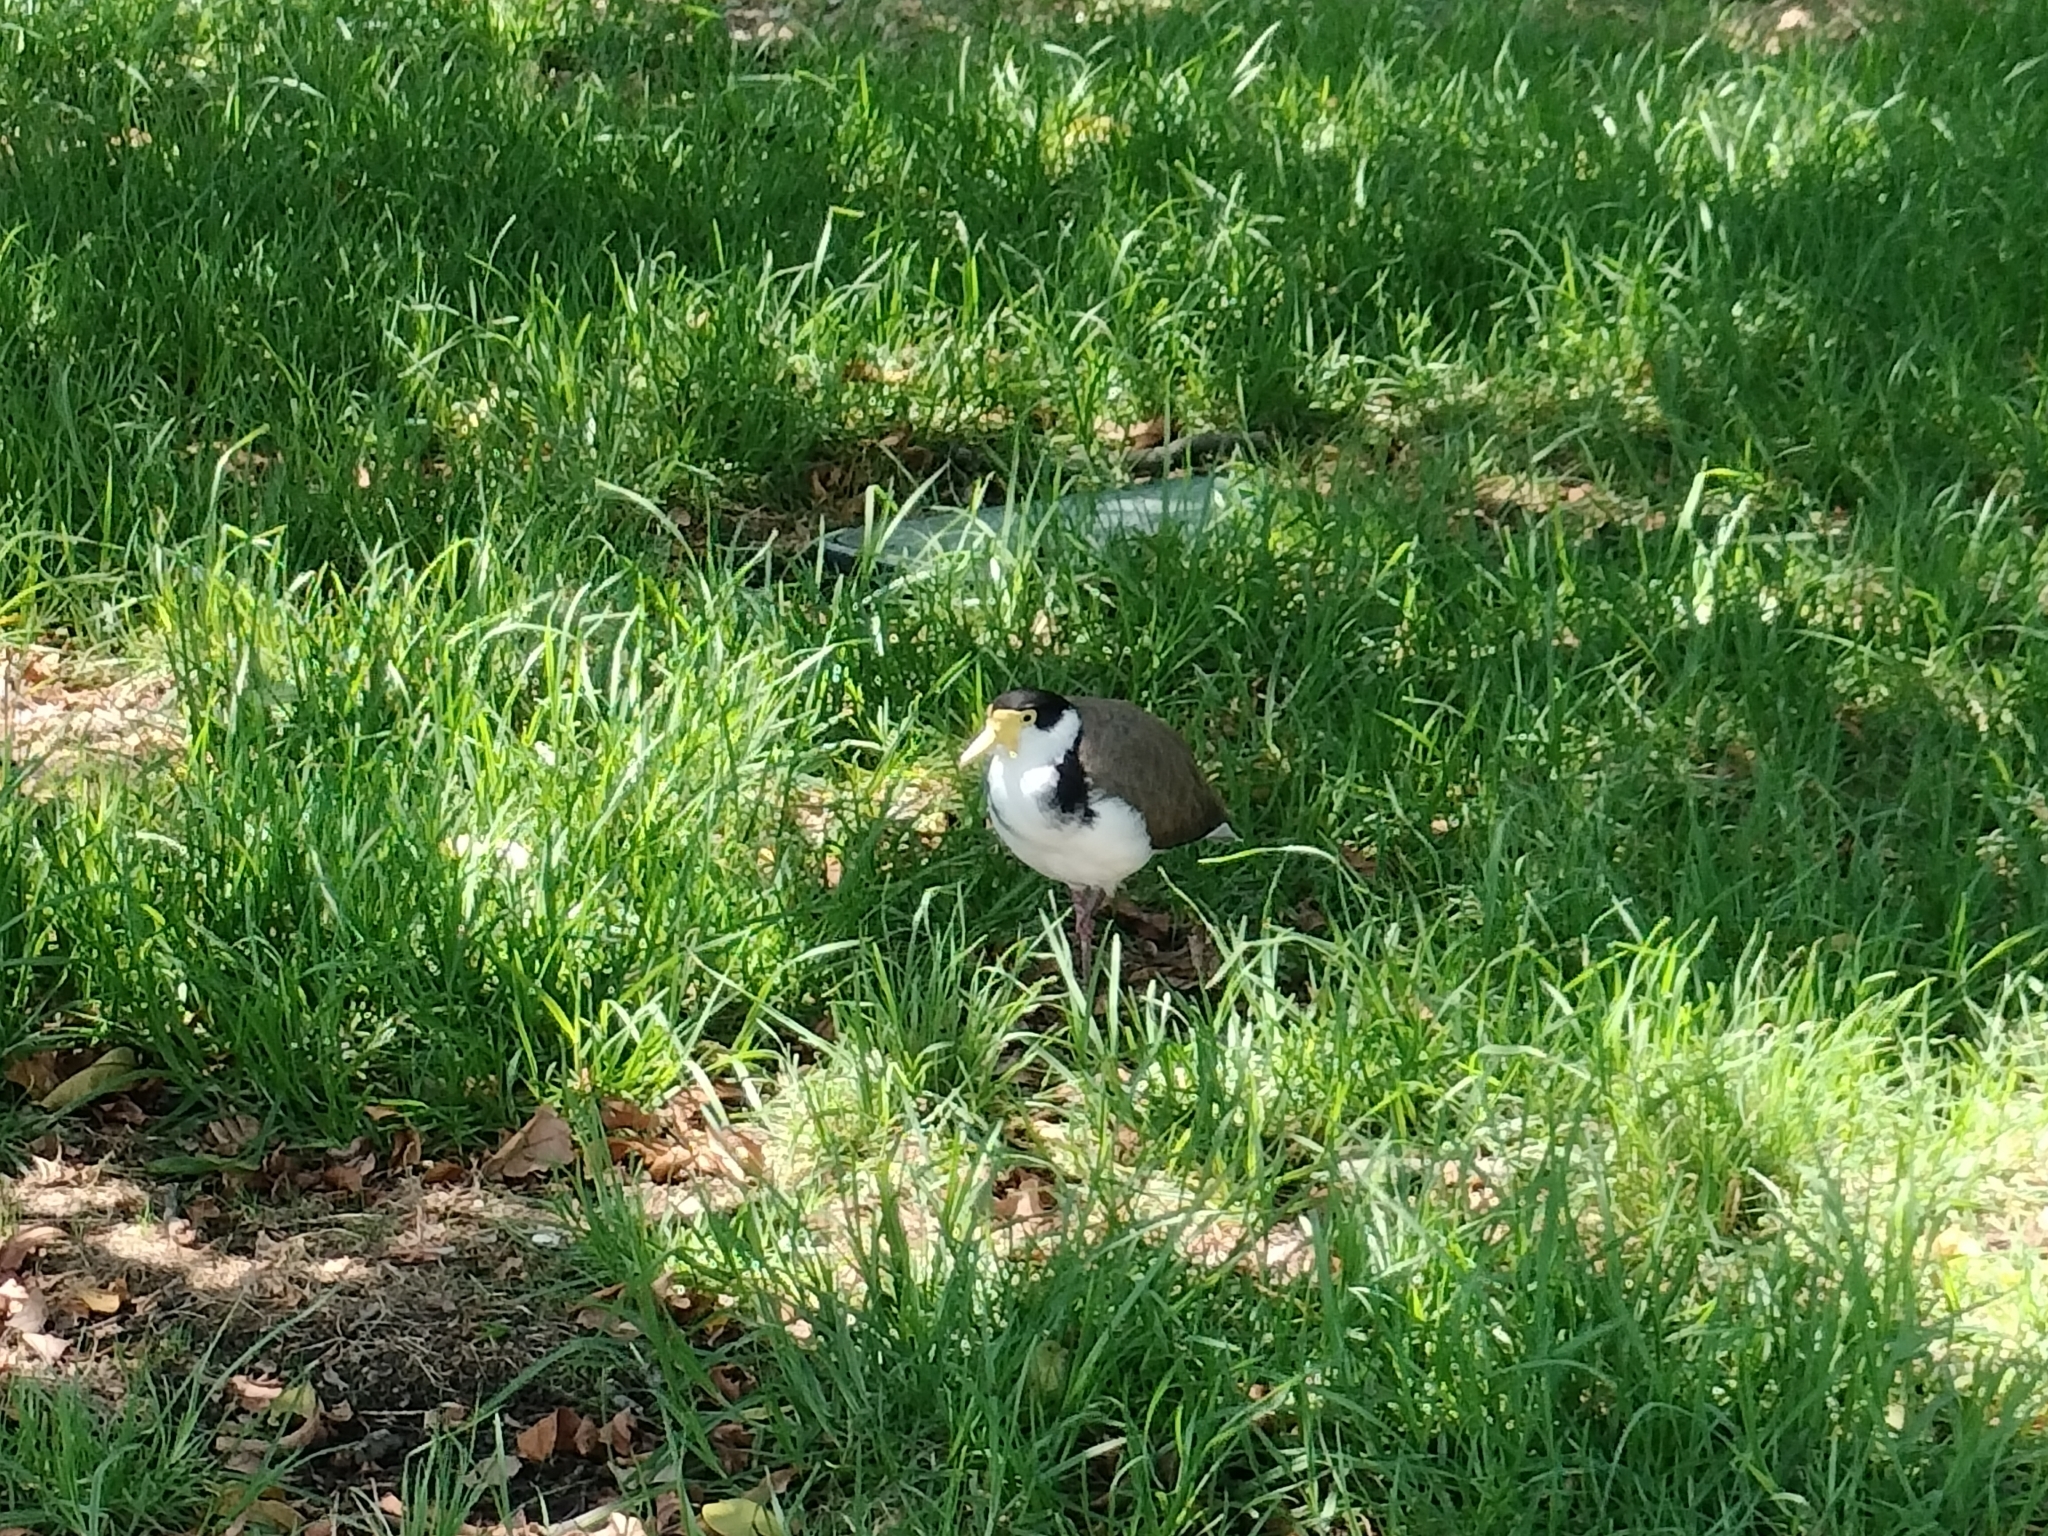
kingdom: Animalia
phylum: Chordata
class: Aves
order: Charadriiformes
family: Charadriidae
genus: Vanellus
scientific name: Vanellus miles
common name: Masked lapwing
